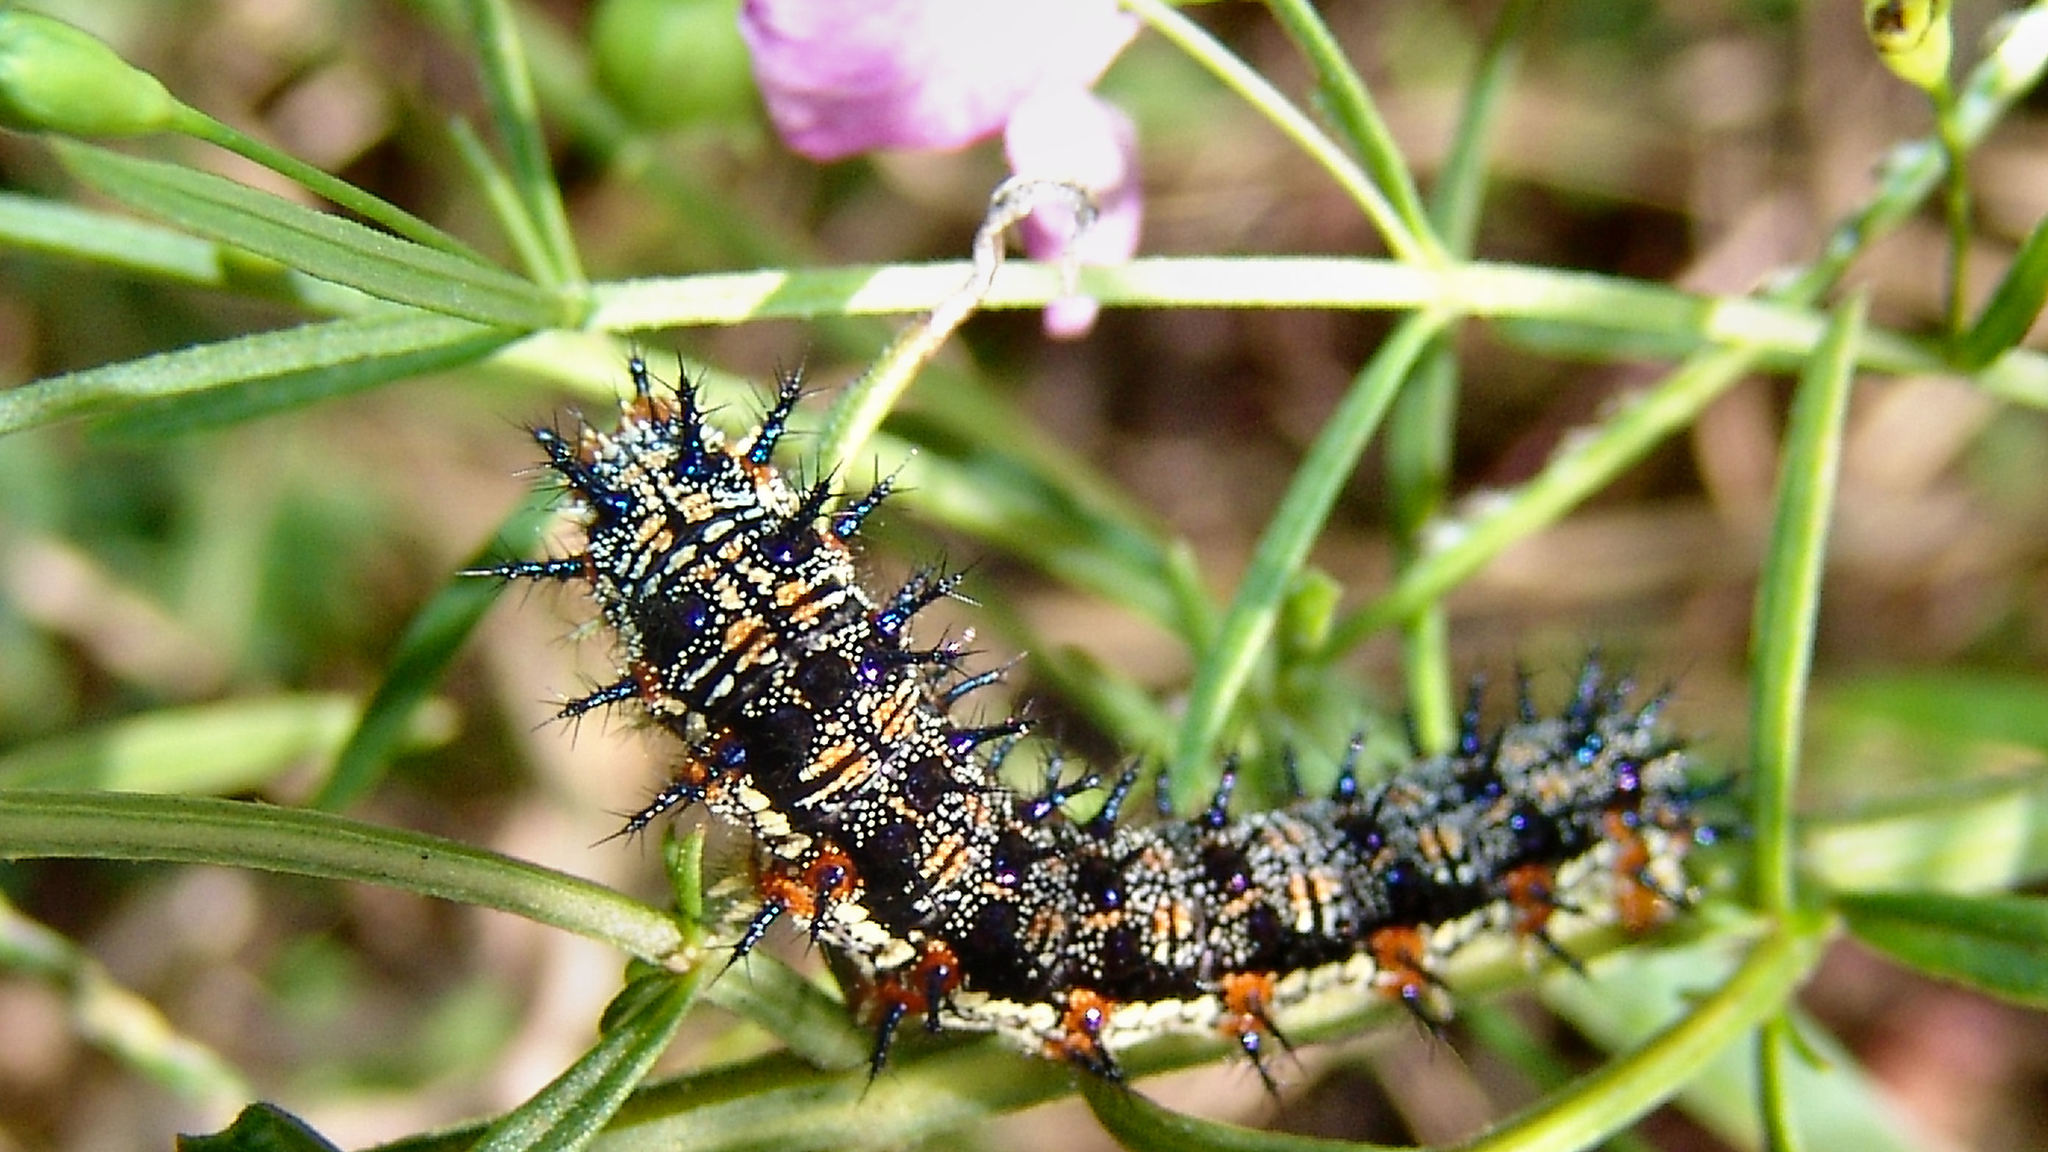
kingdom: Animalia
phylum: Arthropoda
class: Insecta
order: Lepidoptera
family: Nymphalidae
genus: Junonia
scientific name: Junonia coenia
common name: Common buckeye
